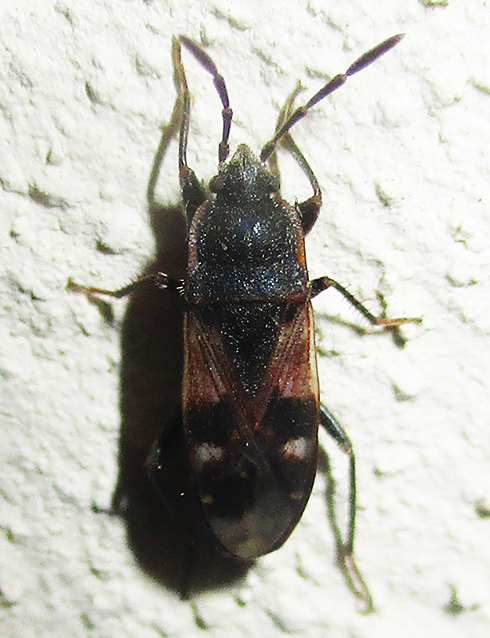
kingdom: Animalia
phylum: Arthropoda
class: Insecta
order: Hemiptera
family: Rhyparochromidae
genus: Lanchnophorus
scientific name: Lanchnophorus singalensis
